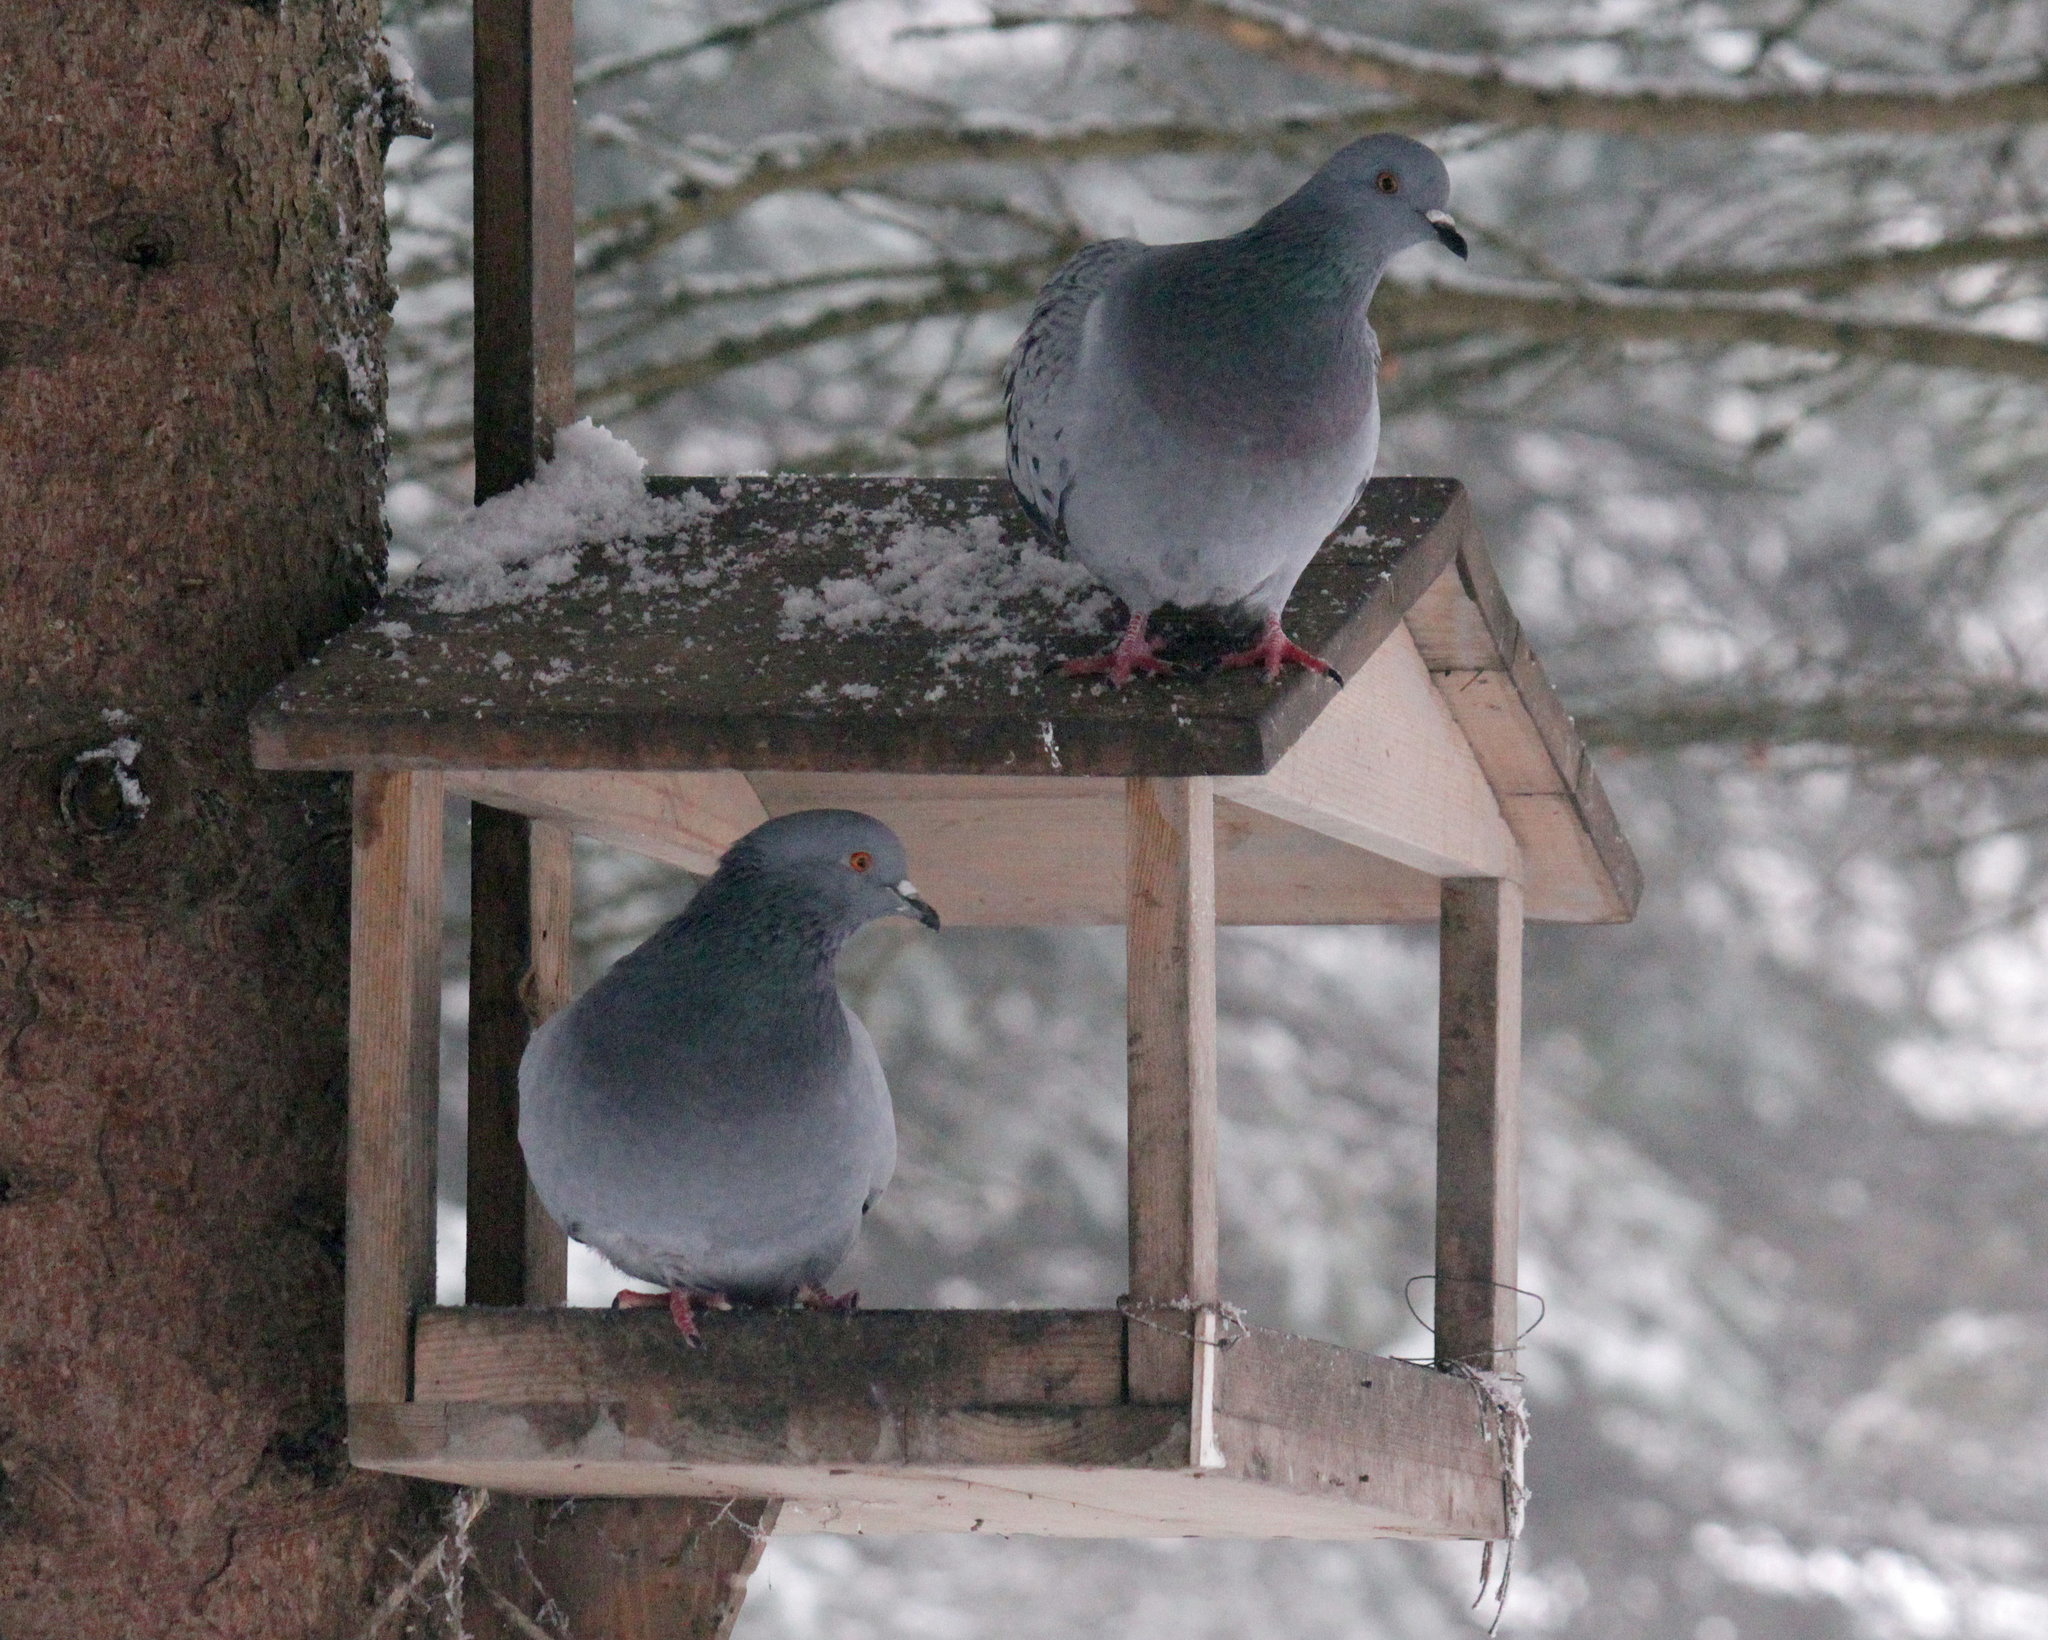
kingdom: Animalia
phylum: Chordata
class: Aves
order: Columbiformes
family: Columbidae
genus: Columba
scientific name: Columba livia
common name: Rock pigeon
